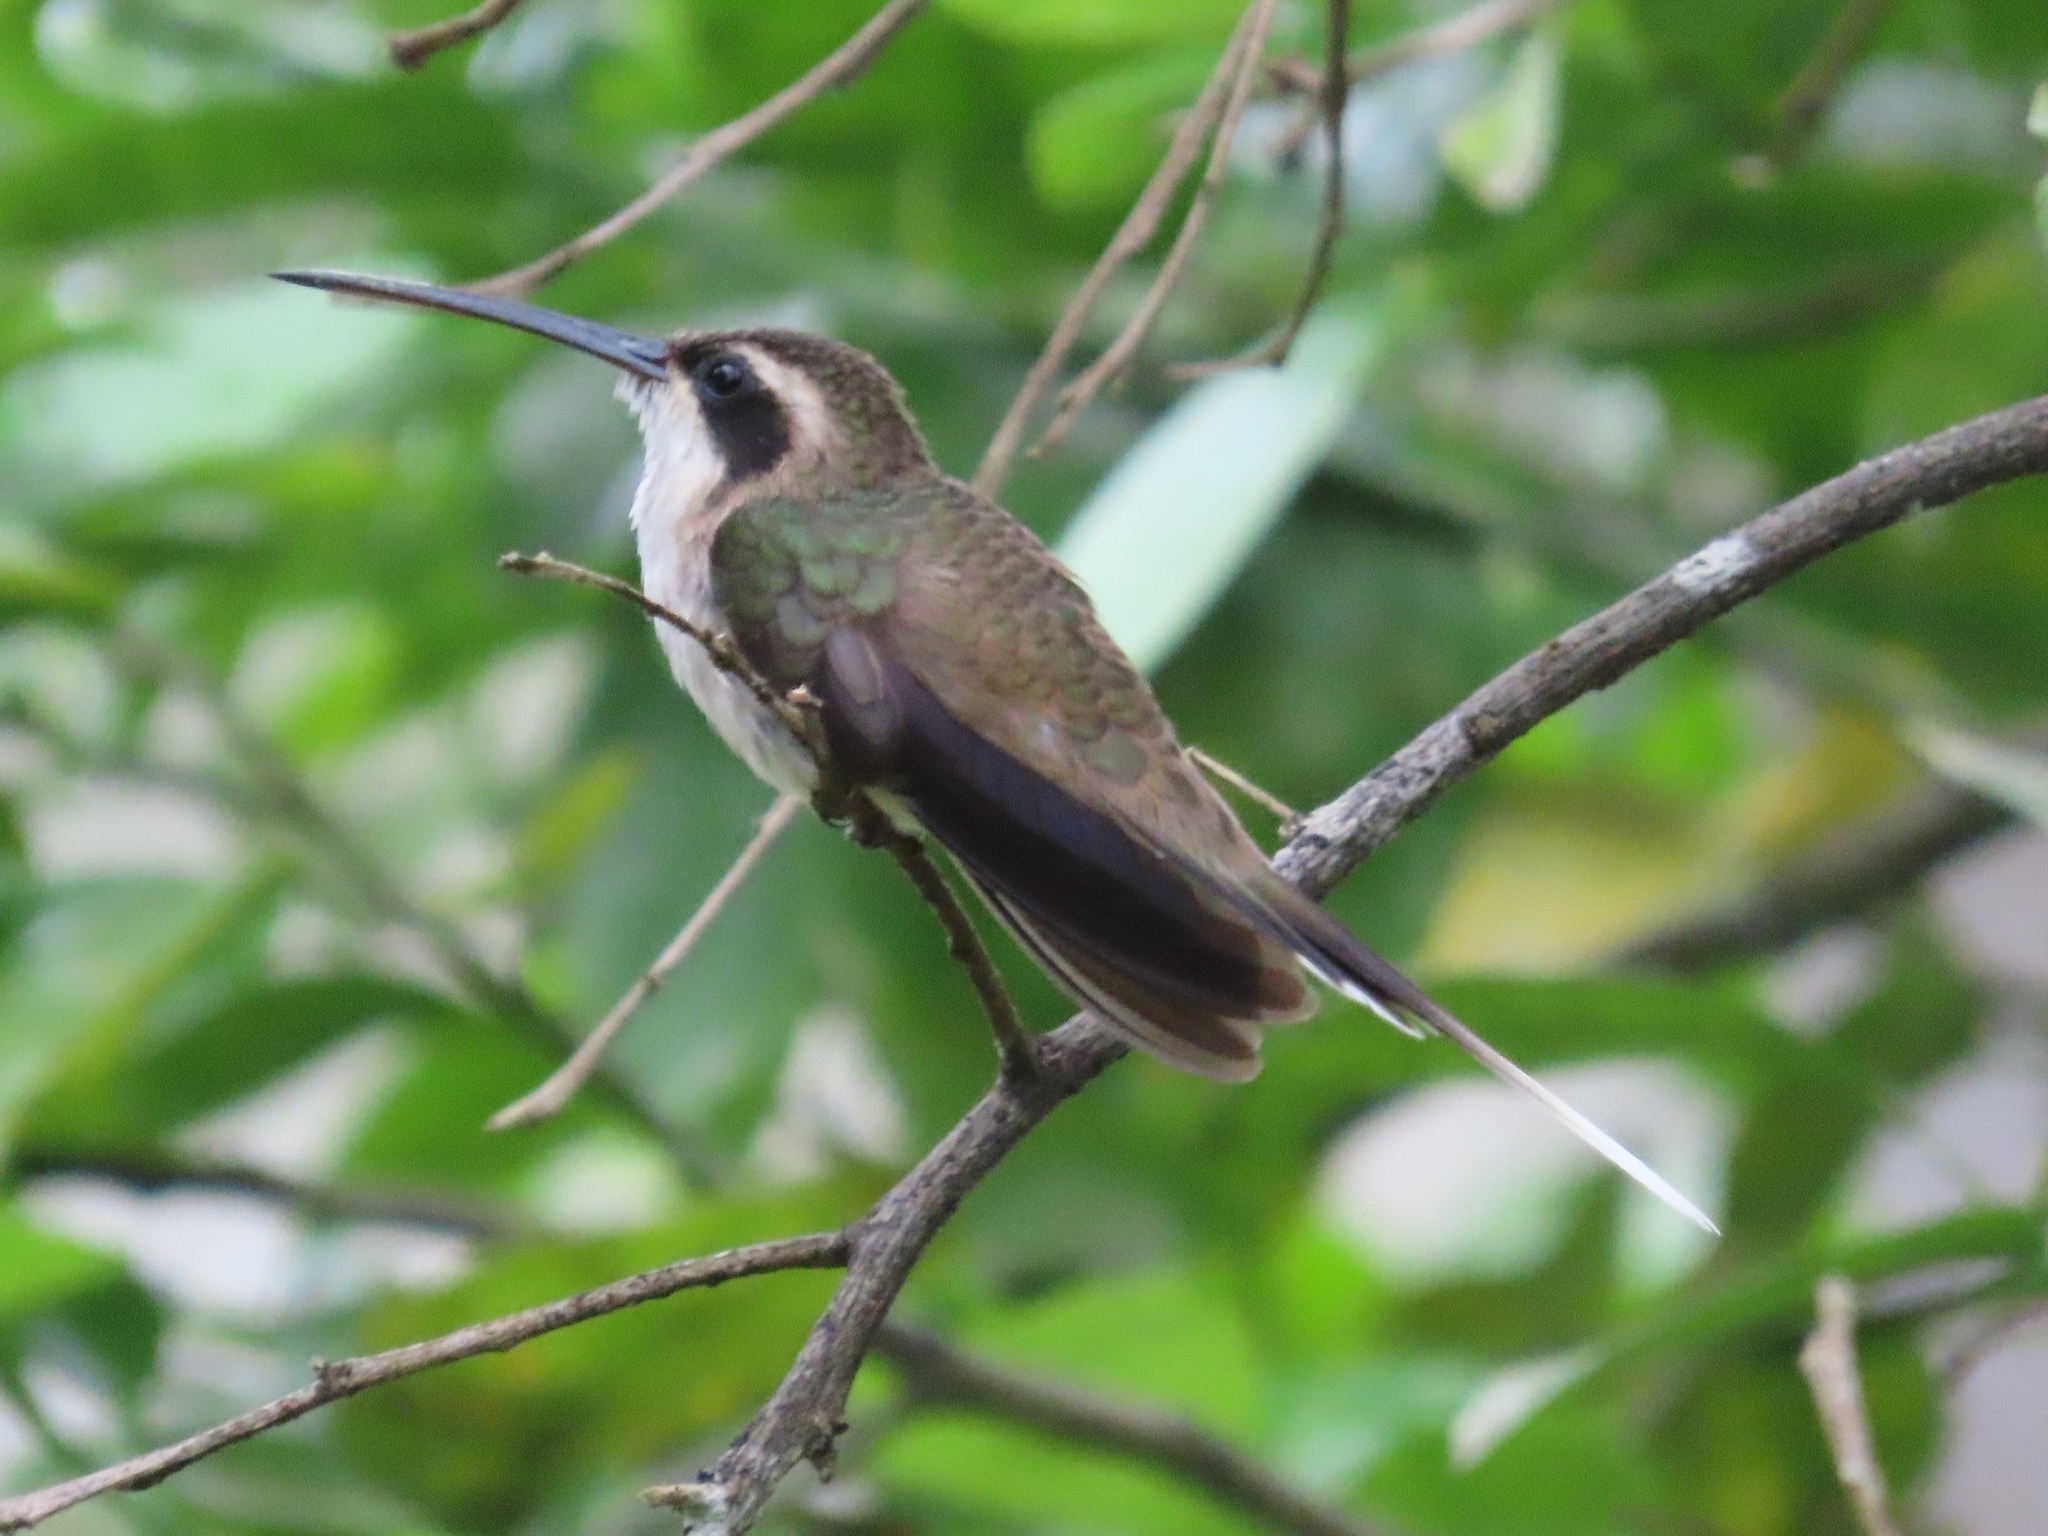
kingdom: Animalia
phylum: Chordata
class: Aves
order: Apodiformes
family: Trochilidae
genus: Phaethornis
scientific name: Phaethornis anthophilus
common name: Pale-bellied hermit
